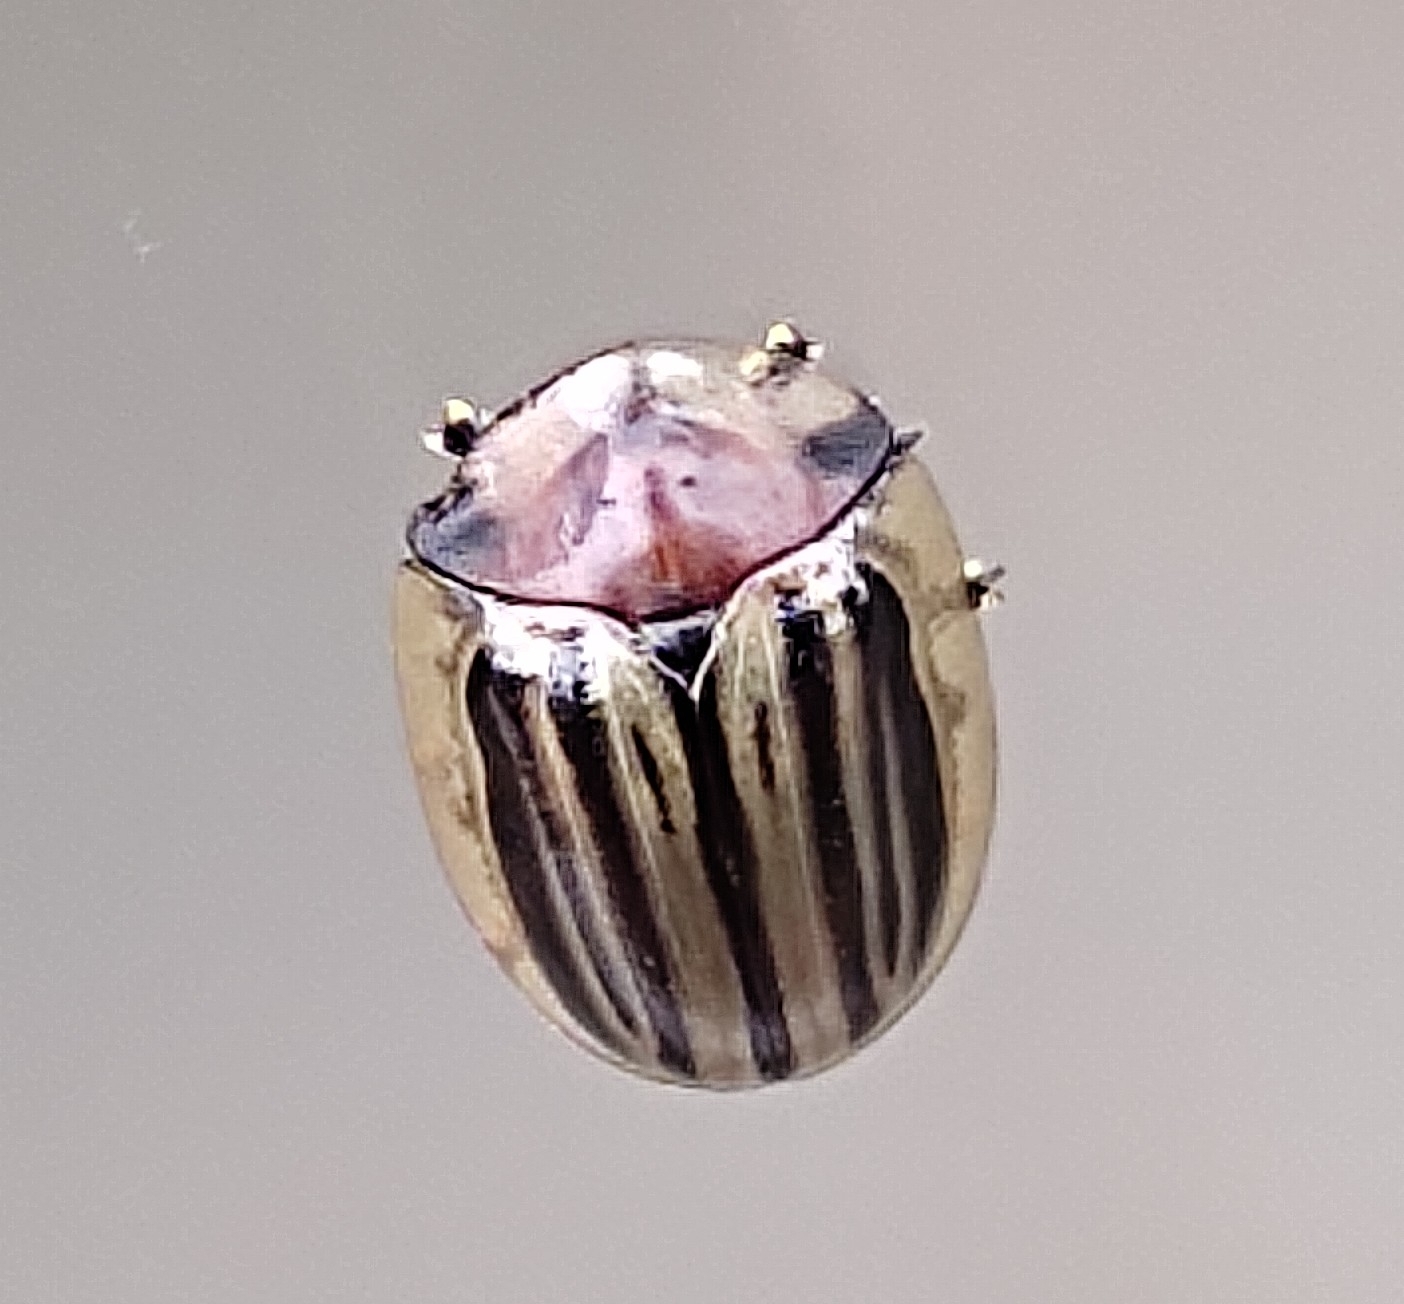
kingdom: Animalia
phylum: Arthropoda
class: Insecta
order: Coleoptera
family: Chrysomelidae
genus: Agroiconota
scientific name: Agroiconota tristriata
